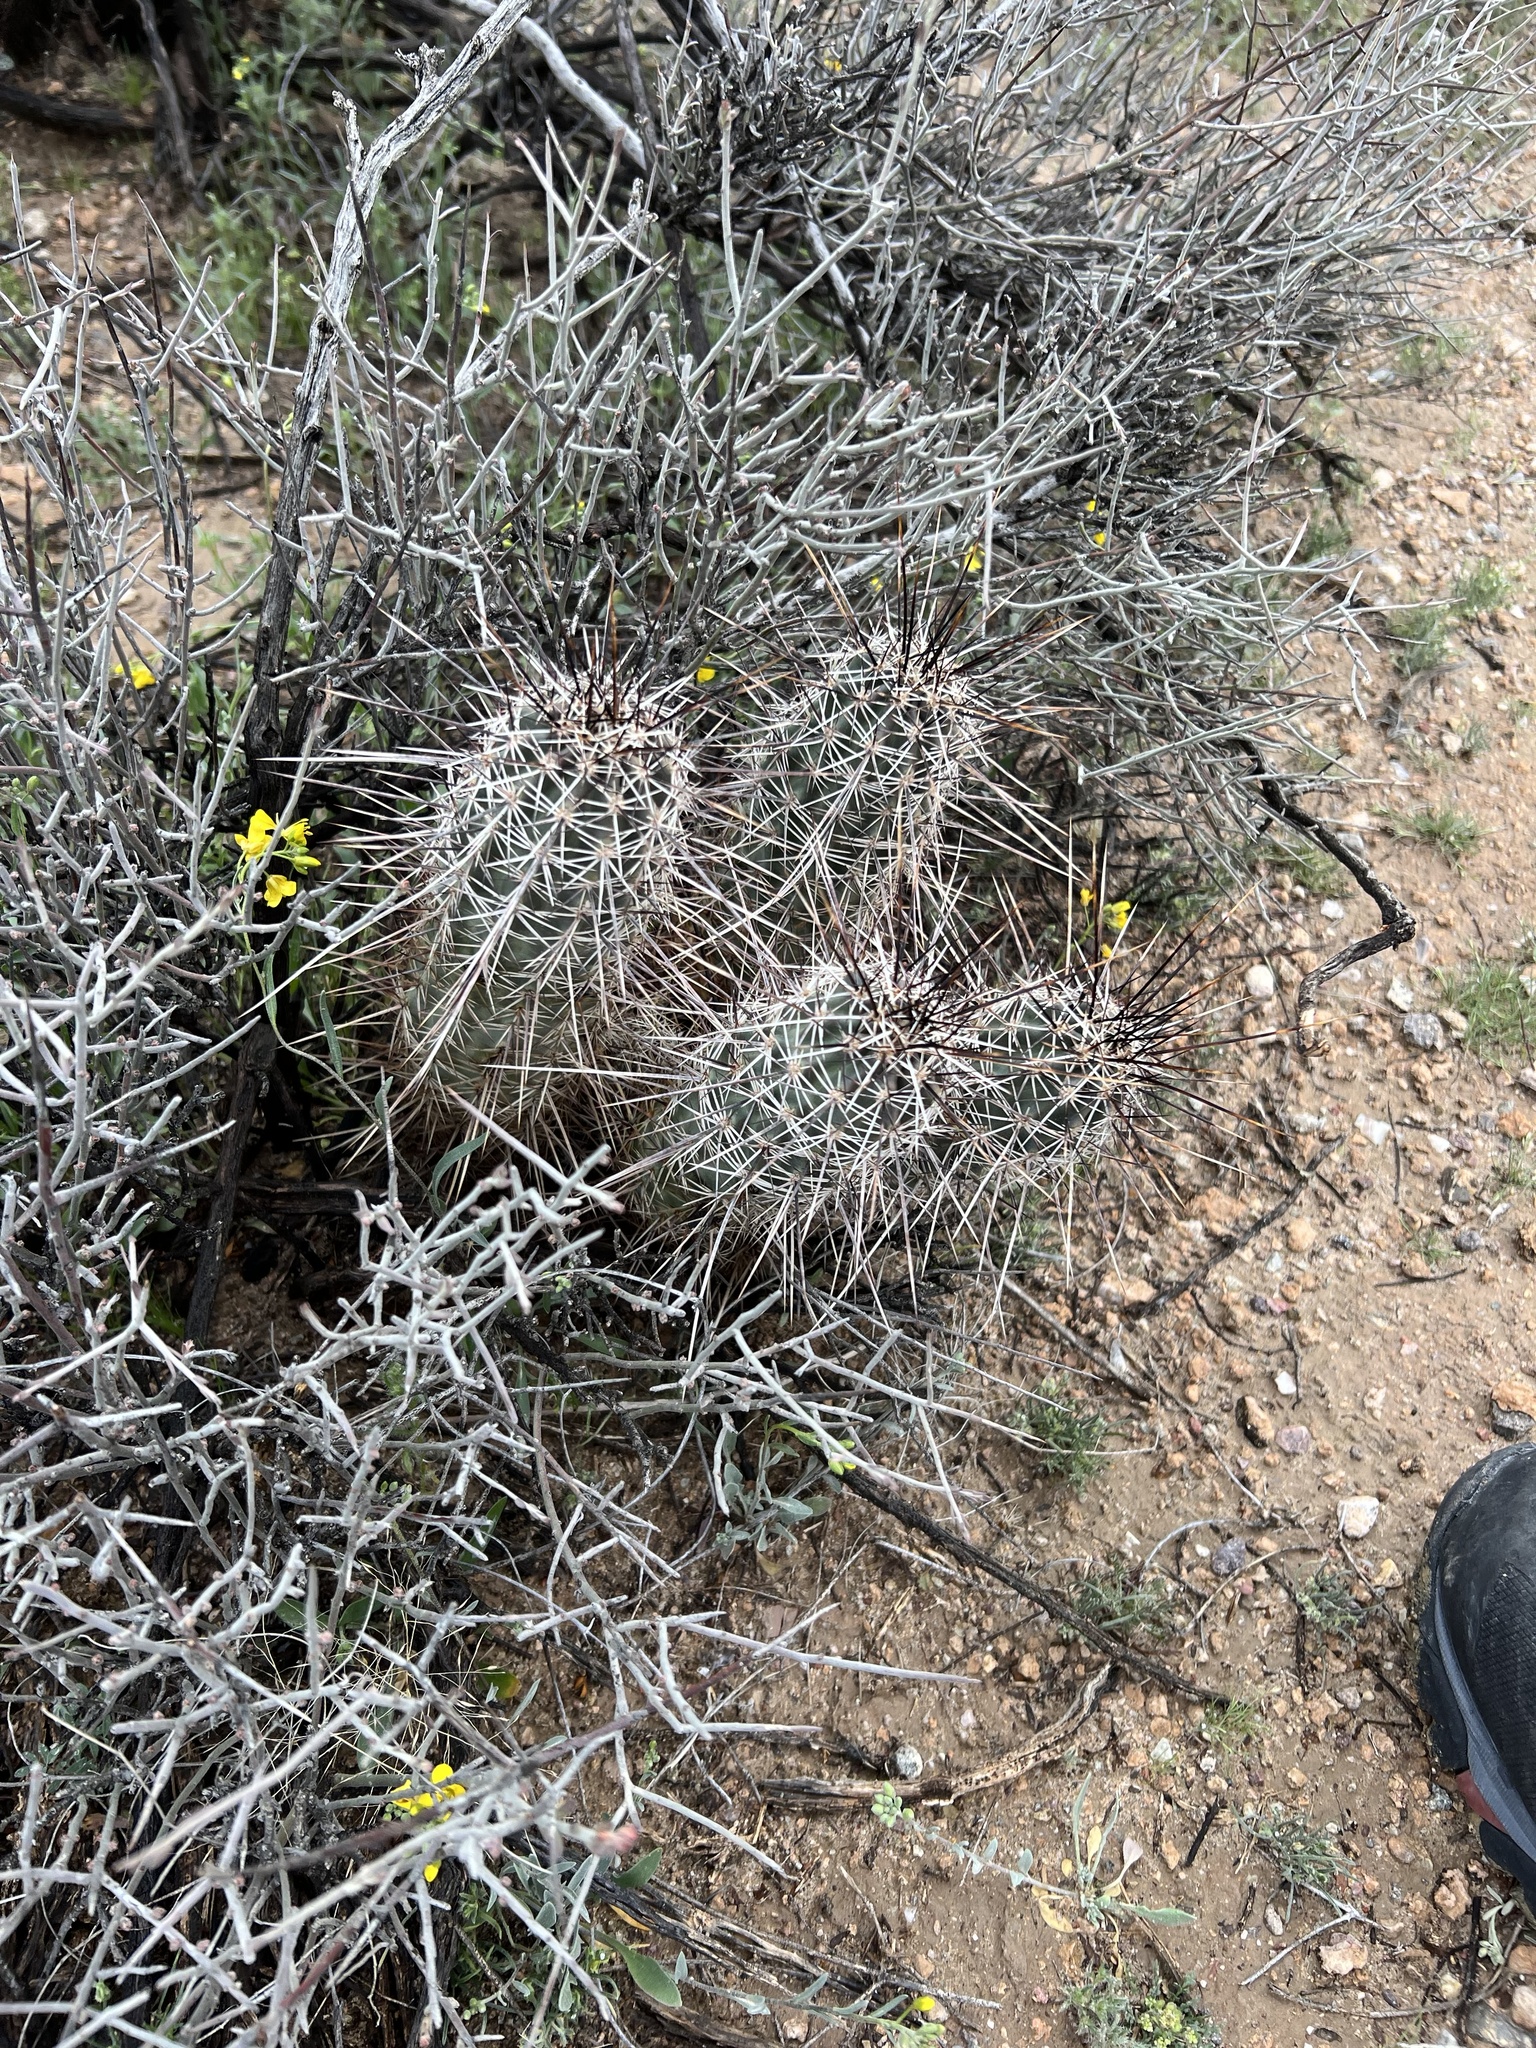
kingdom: Plantae
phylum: Tracheophyta
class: Magnoliopsida
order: Caryophyllales
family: Cactaceae
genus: Echinocereus
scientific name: Echinocereus fasciculatus
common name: Bundle hedgehog
